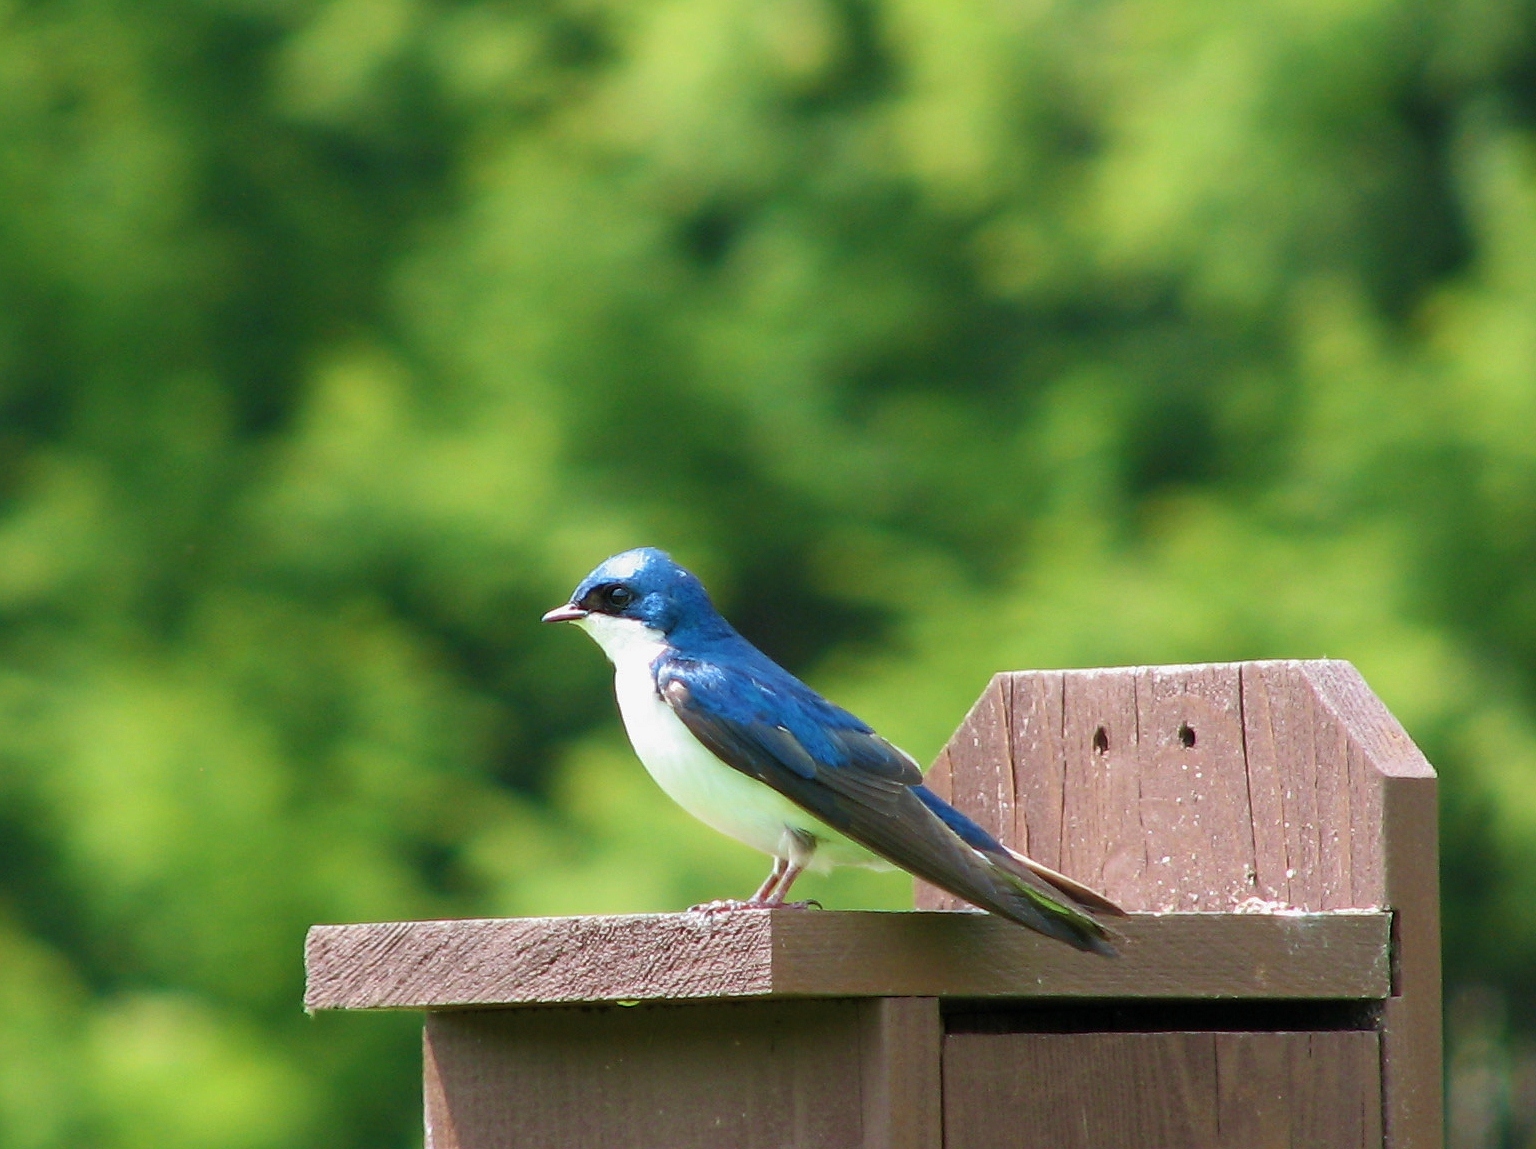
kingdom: Animalia
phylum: Chordata
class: Aves
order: Passeriformes
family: Hirundinidae
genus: Tachycineta
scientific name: Tachycineta bicolor
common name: Tree swallow
